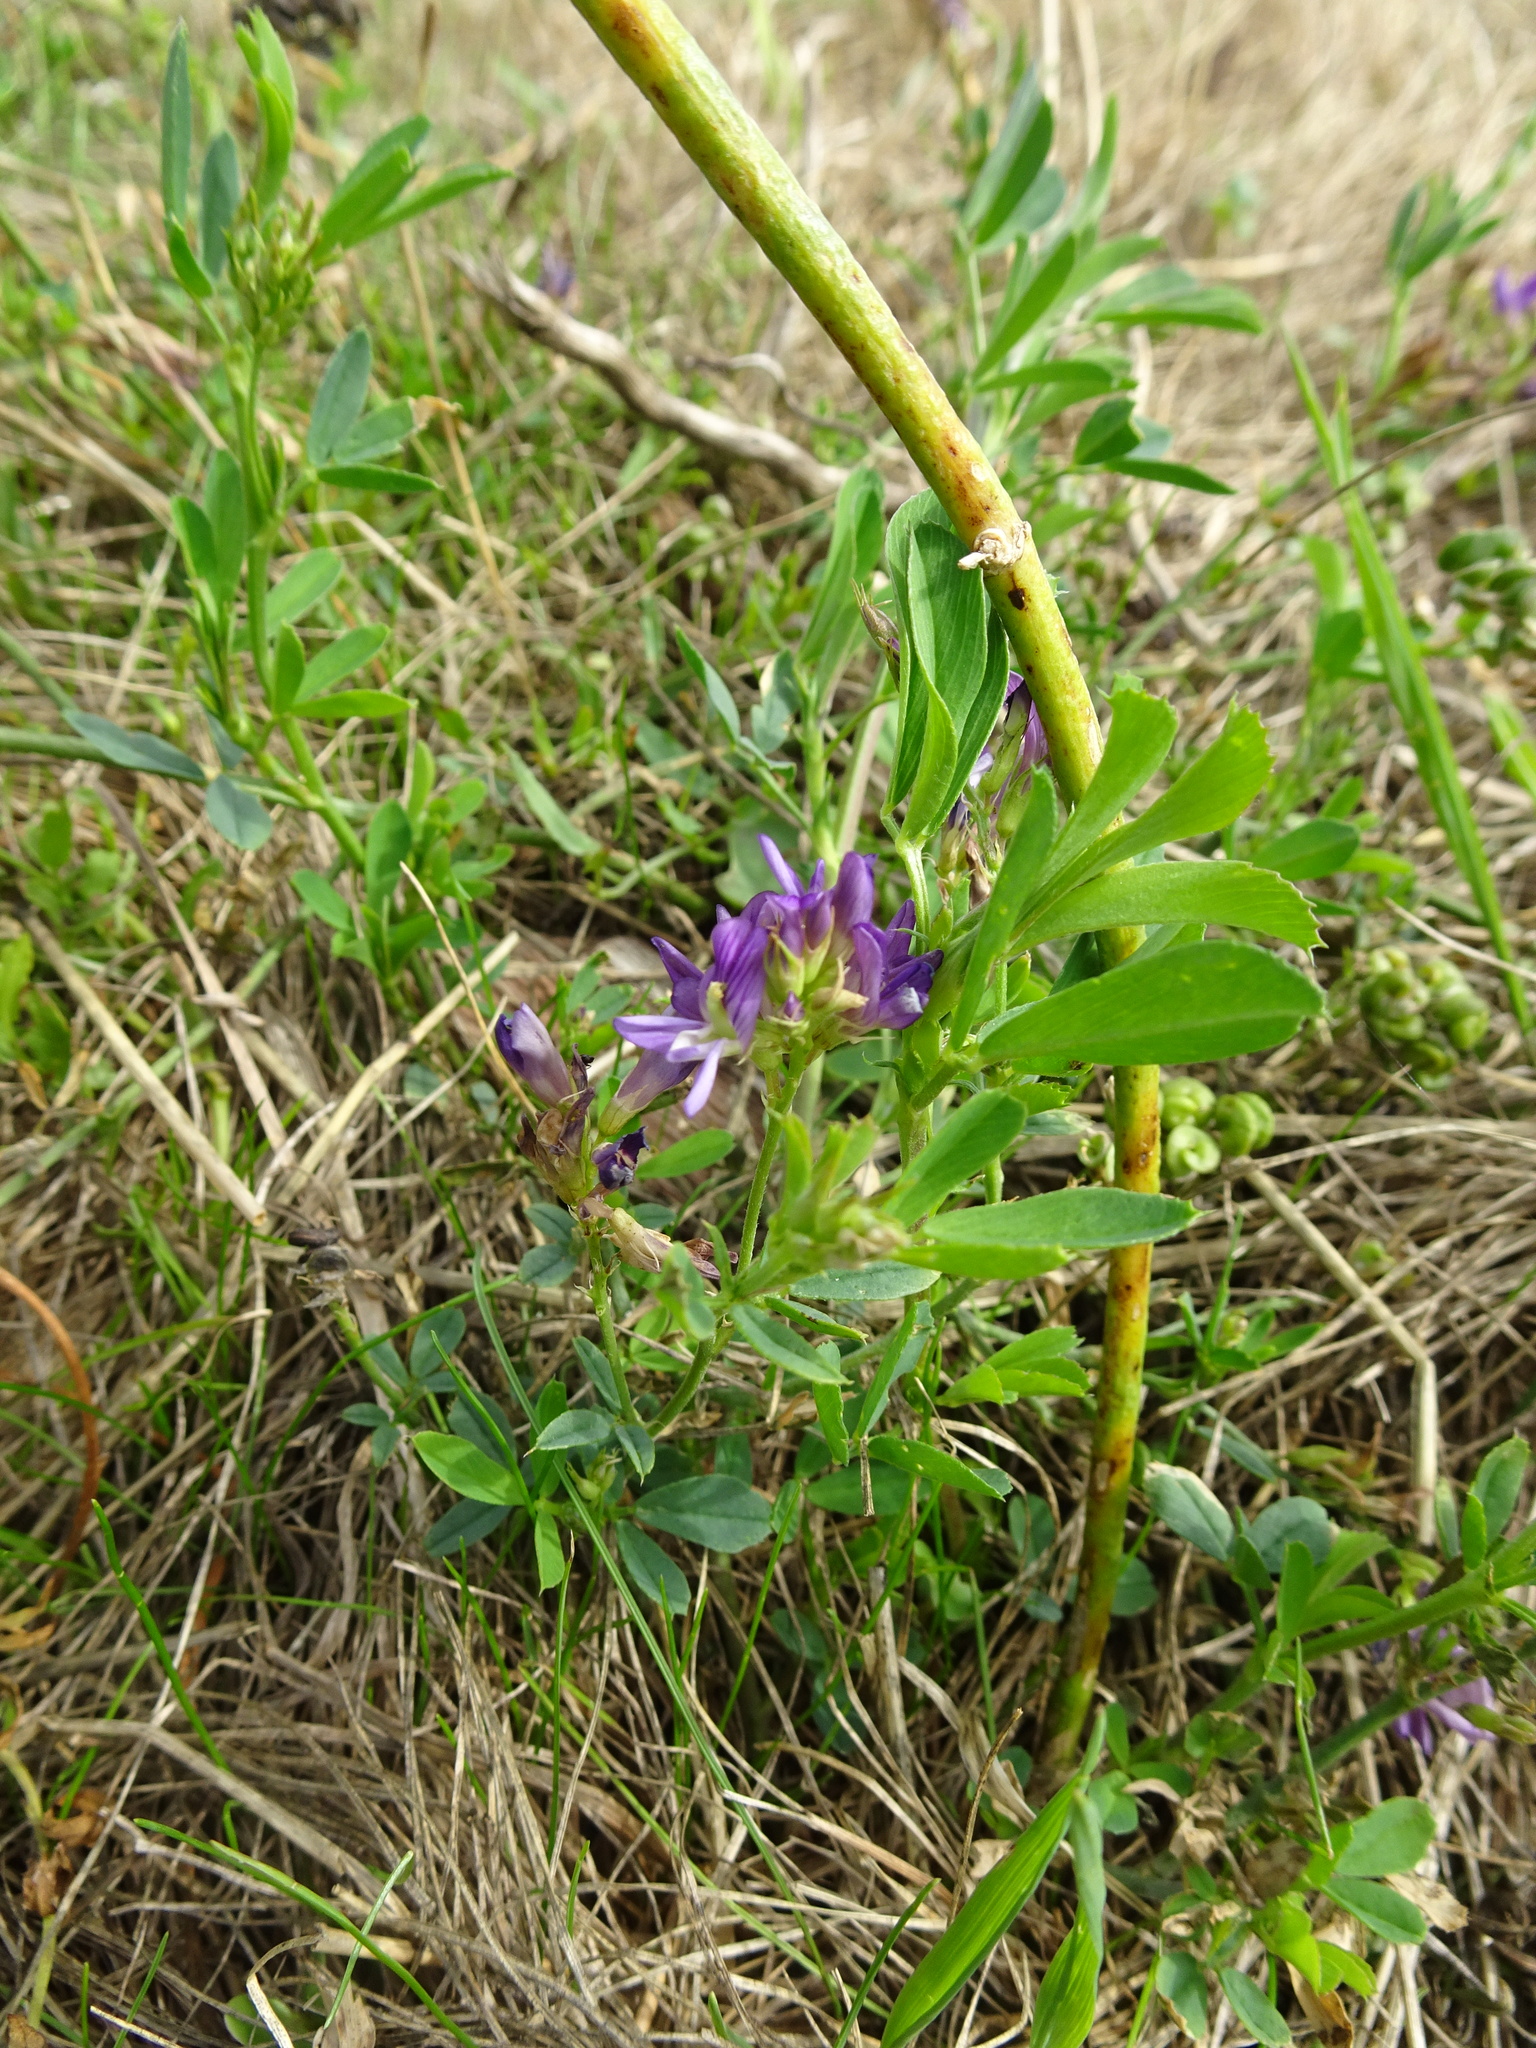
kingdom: Plantae
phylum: Tracheophyta
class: Magnoliopsida
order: Fabales
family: Fabaceae
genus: Medicago
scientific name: Medicago sativa
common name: Alfalfa
